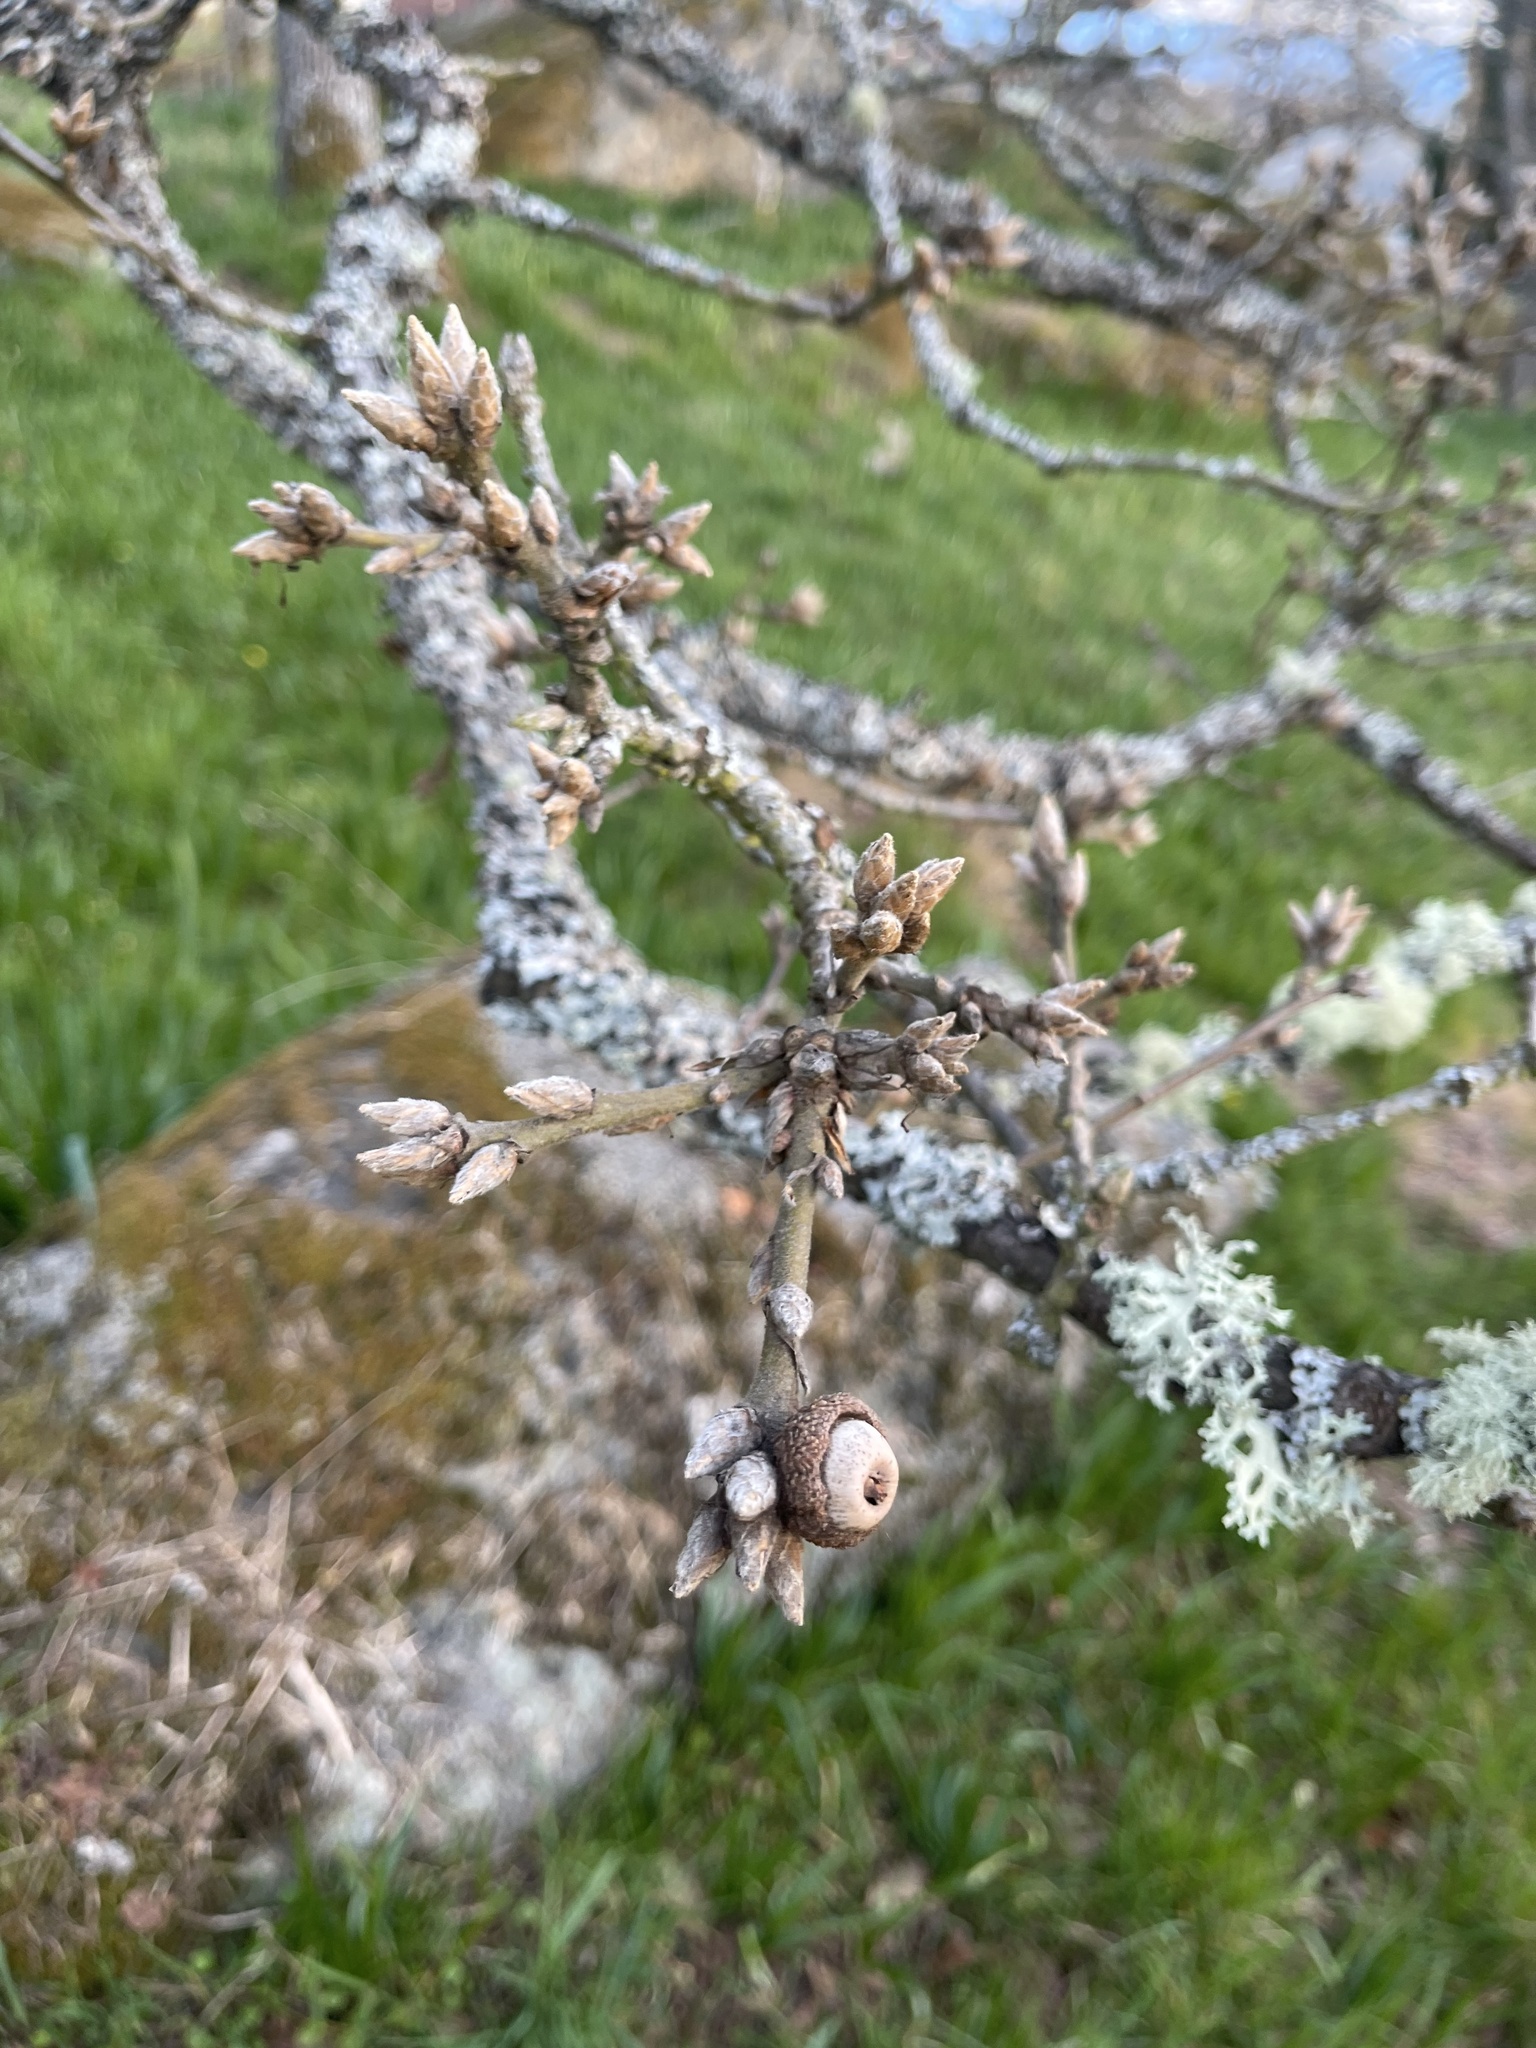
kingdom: Plantae
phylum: Tracheophyta
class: Magnoliopsida
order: Fagales
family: Fagaceae
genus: Quercus
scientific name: Quercus garryana
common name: Garry oak
